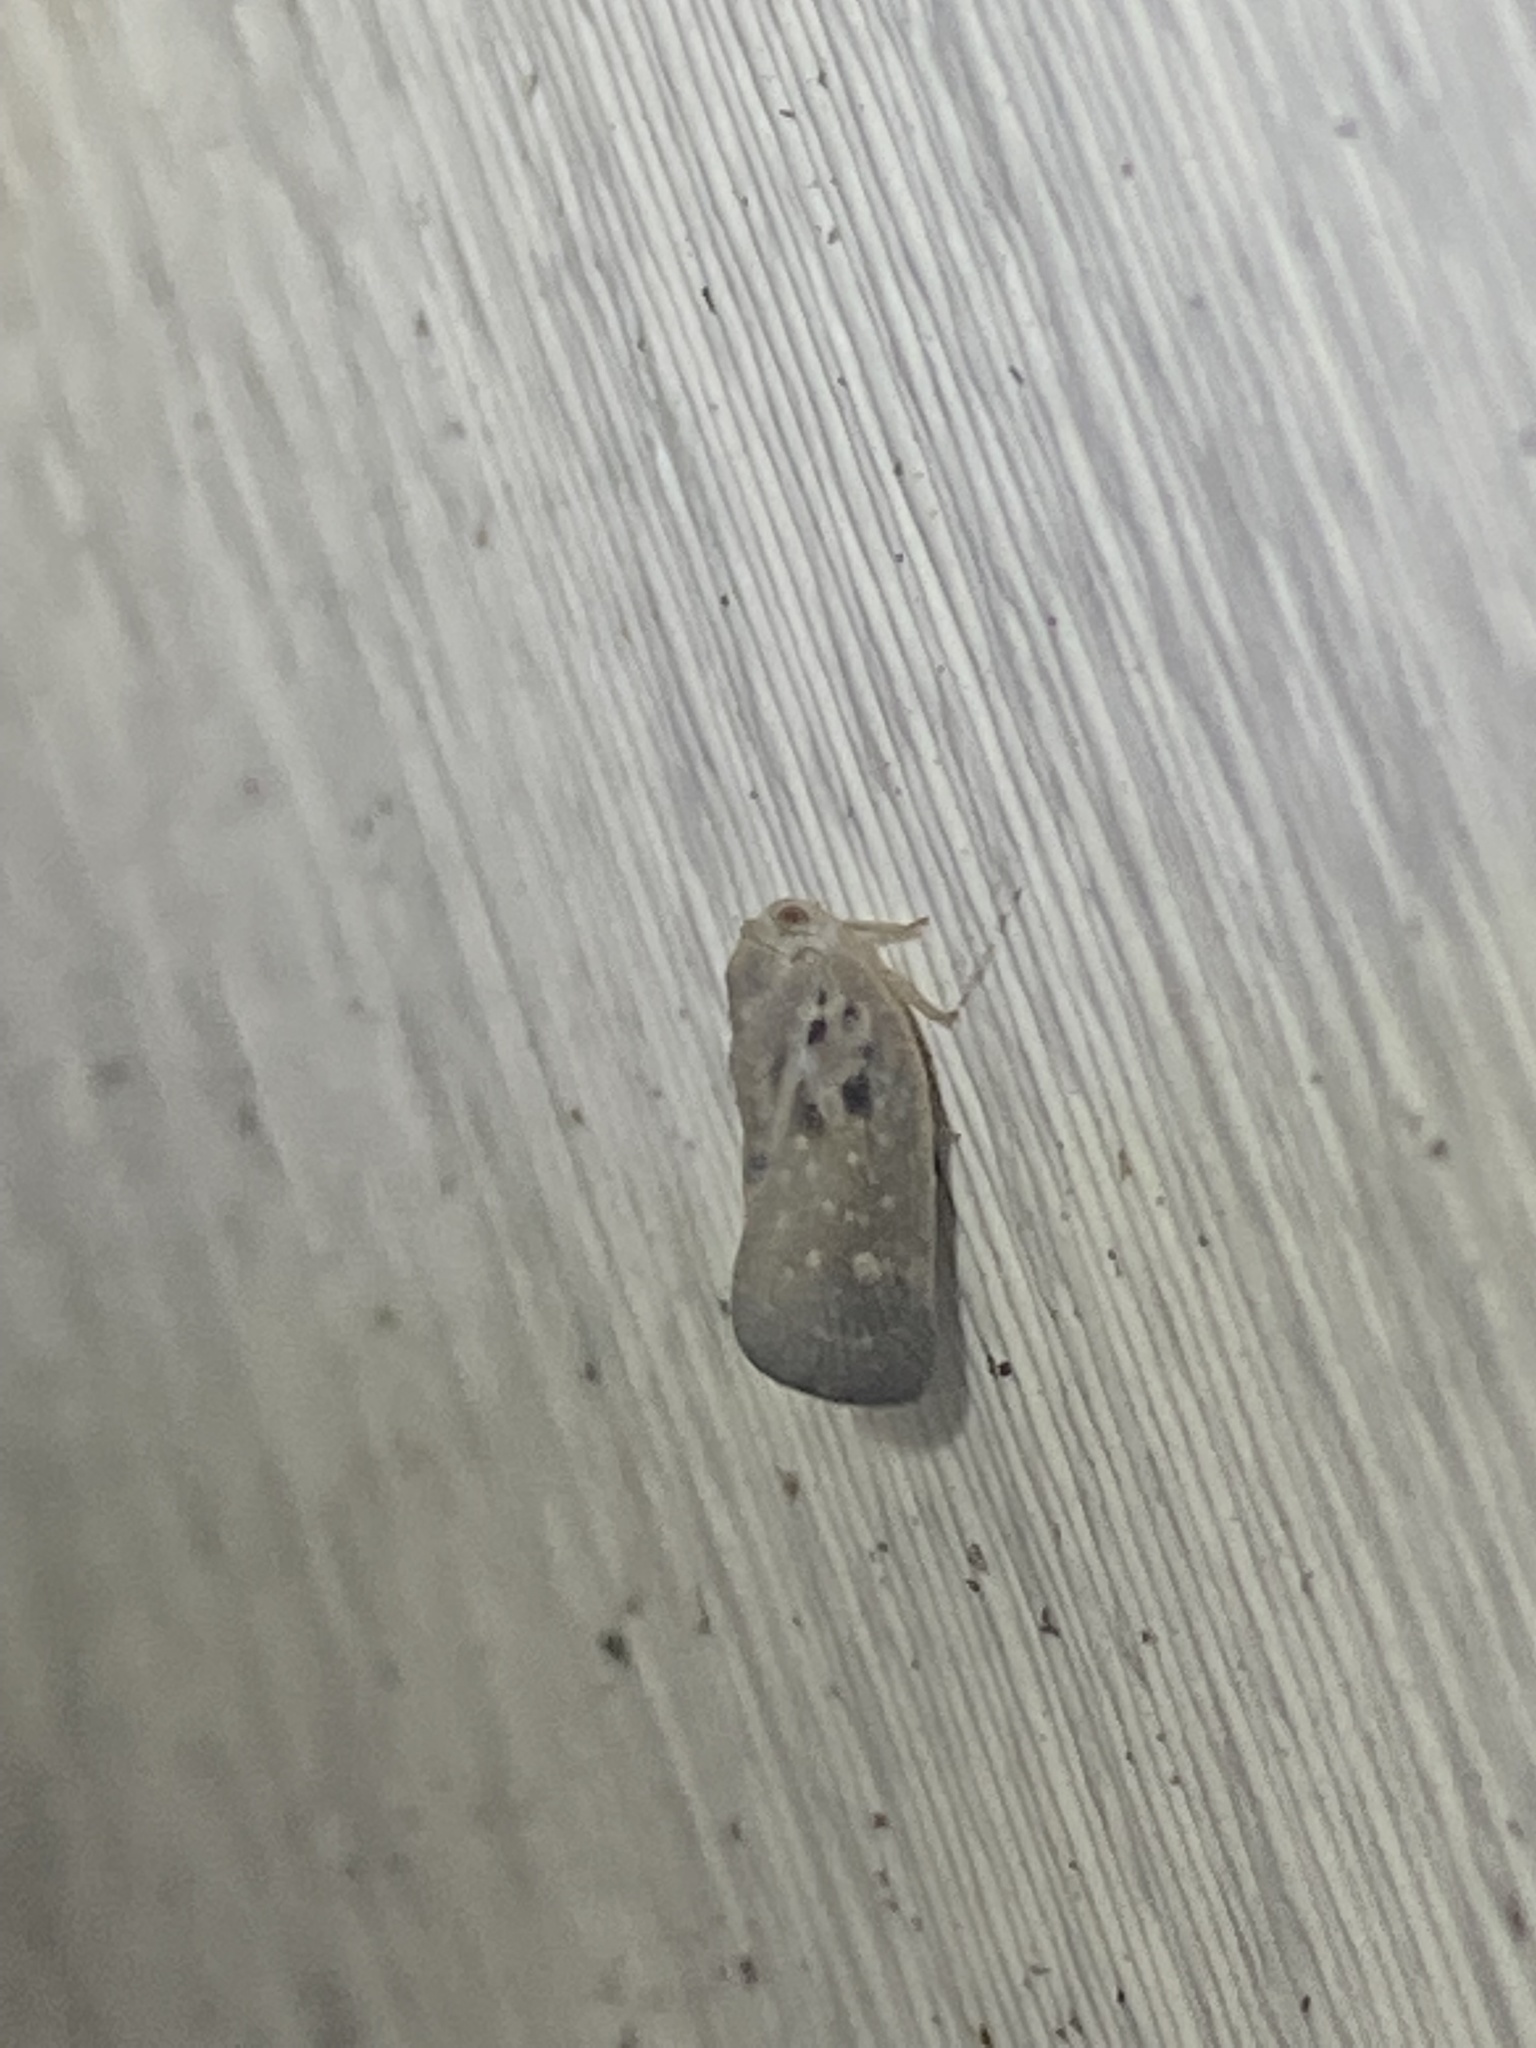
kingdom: Animalia
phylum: Arthropoda
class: Insecta
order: Hemiptera
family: Flatidae
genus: Metcalfa
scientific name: Metcalfa pruinosa
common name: Citrus flatid planthopper
